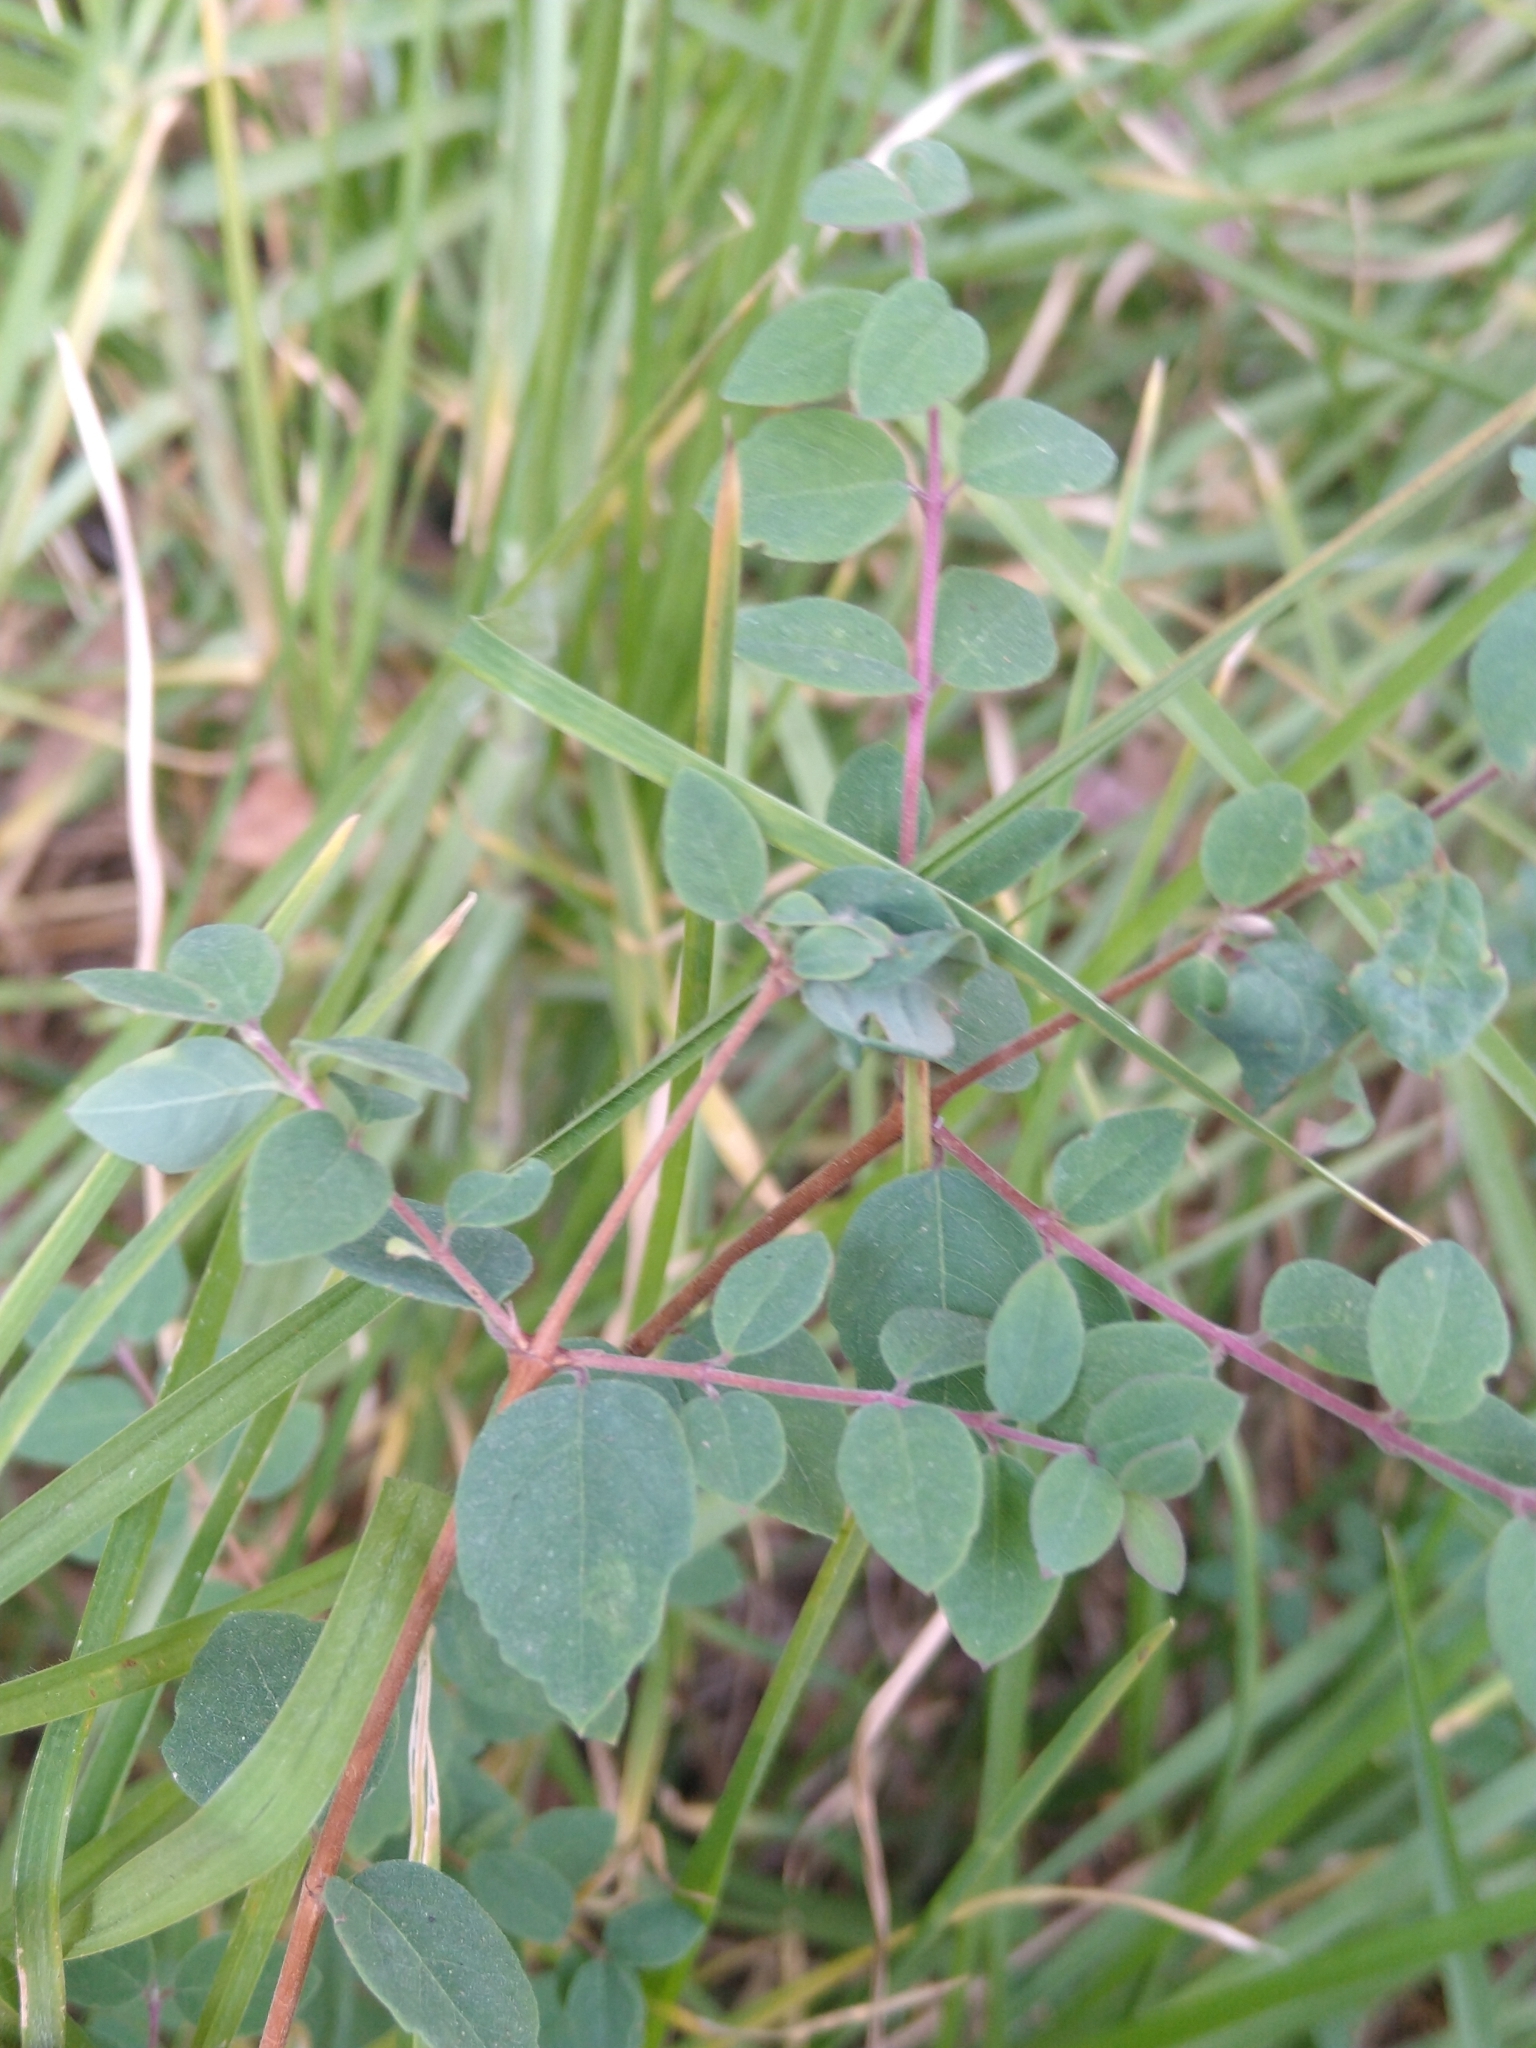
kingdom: Plantae
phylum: Tracheophyta
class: Magnoliopsida
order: Dipsacales
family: Caprifoliaceae
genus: Symphoricarpos
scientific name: Symphoricarpos microphyllus
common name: Small-leaved snowberry
